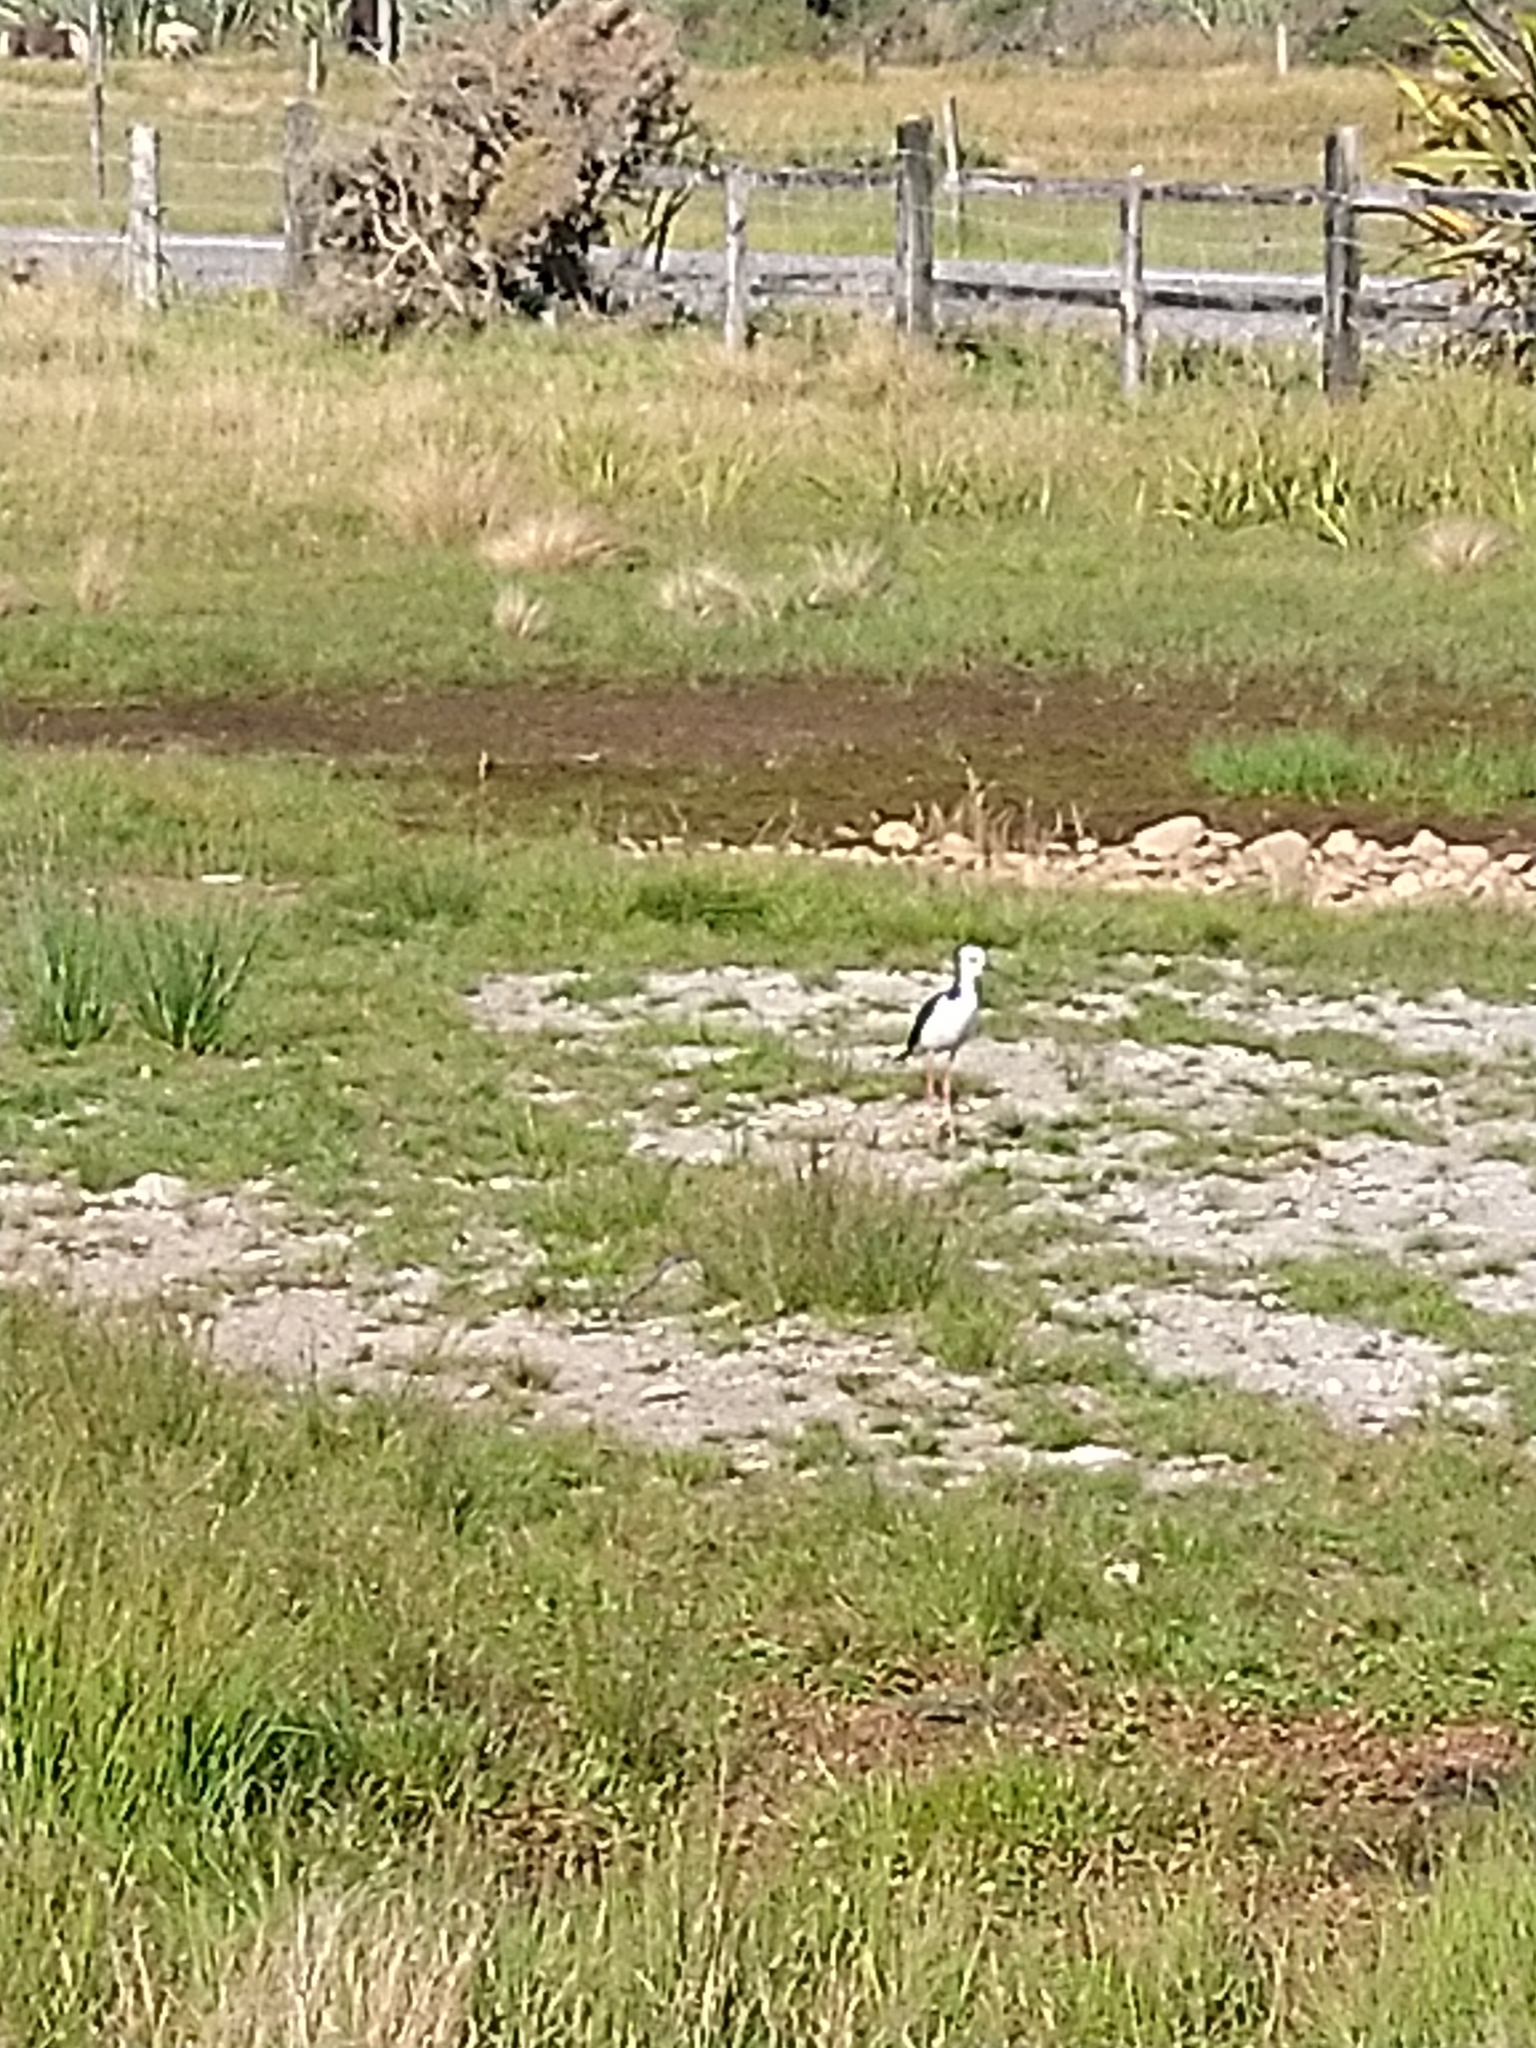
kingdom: Animalia
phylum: Chordata
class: Aves
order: Charadriiformes
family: Recurvirostridae
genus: Himantopus
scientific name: Himantopus leucocephalus
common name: White-headed stilt
